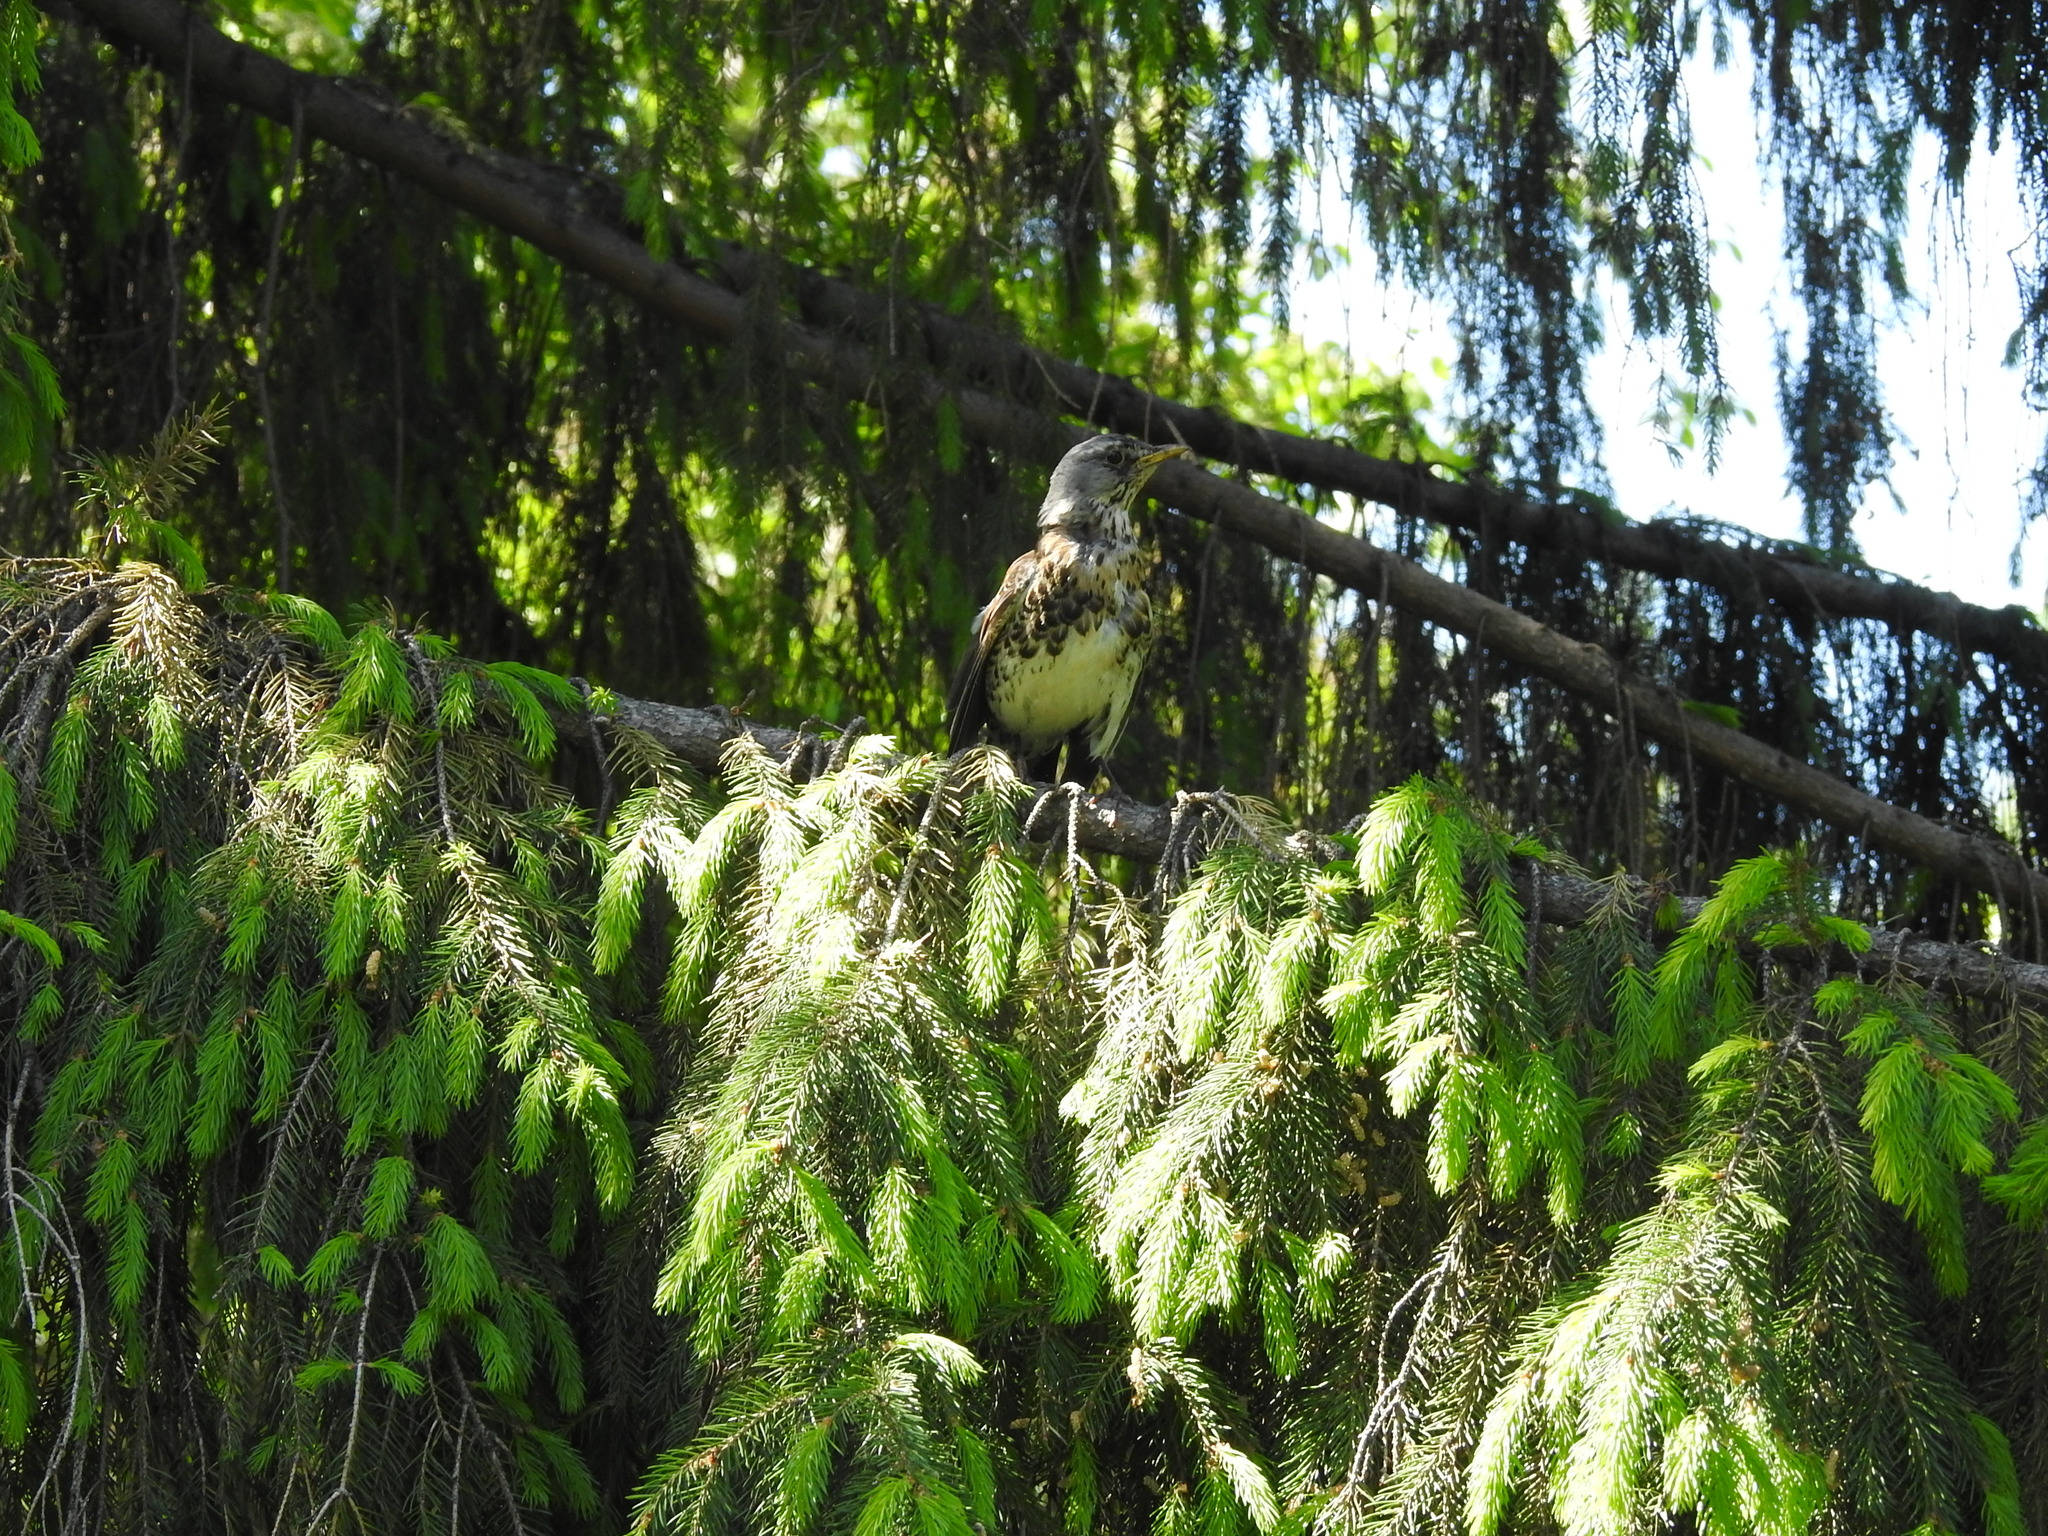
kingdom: Animalia
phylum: Chordata
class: Aves
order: Passeriformes
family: Turdidae
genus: Turdus
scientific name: Turdus pilaris
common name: Fieldfare
